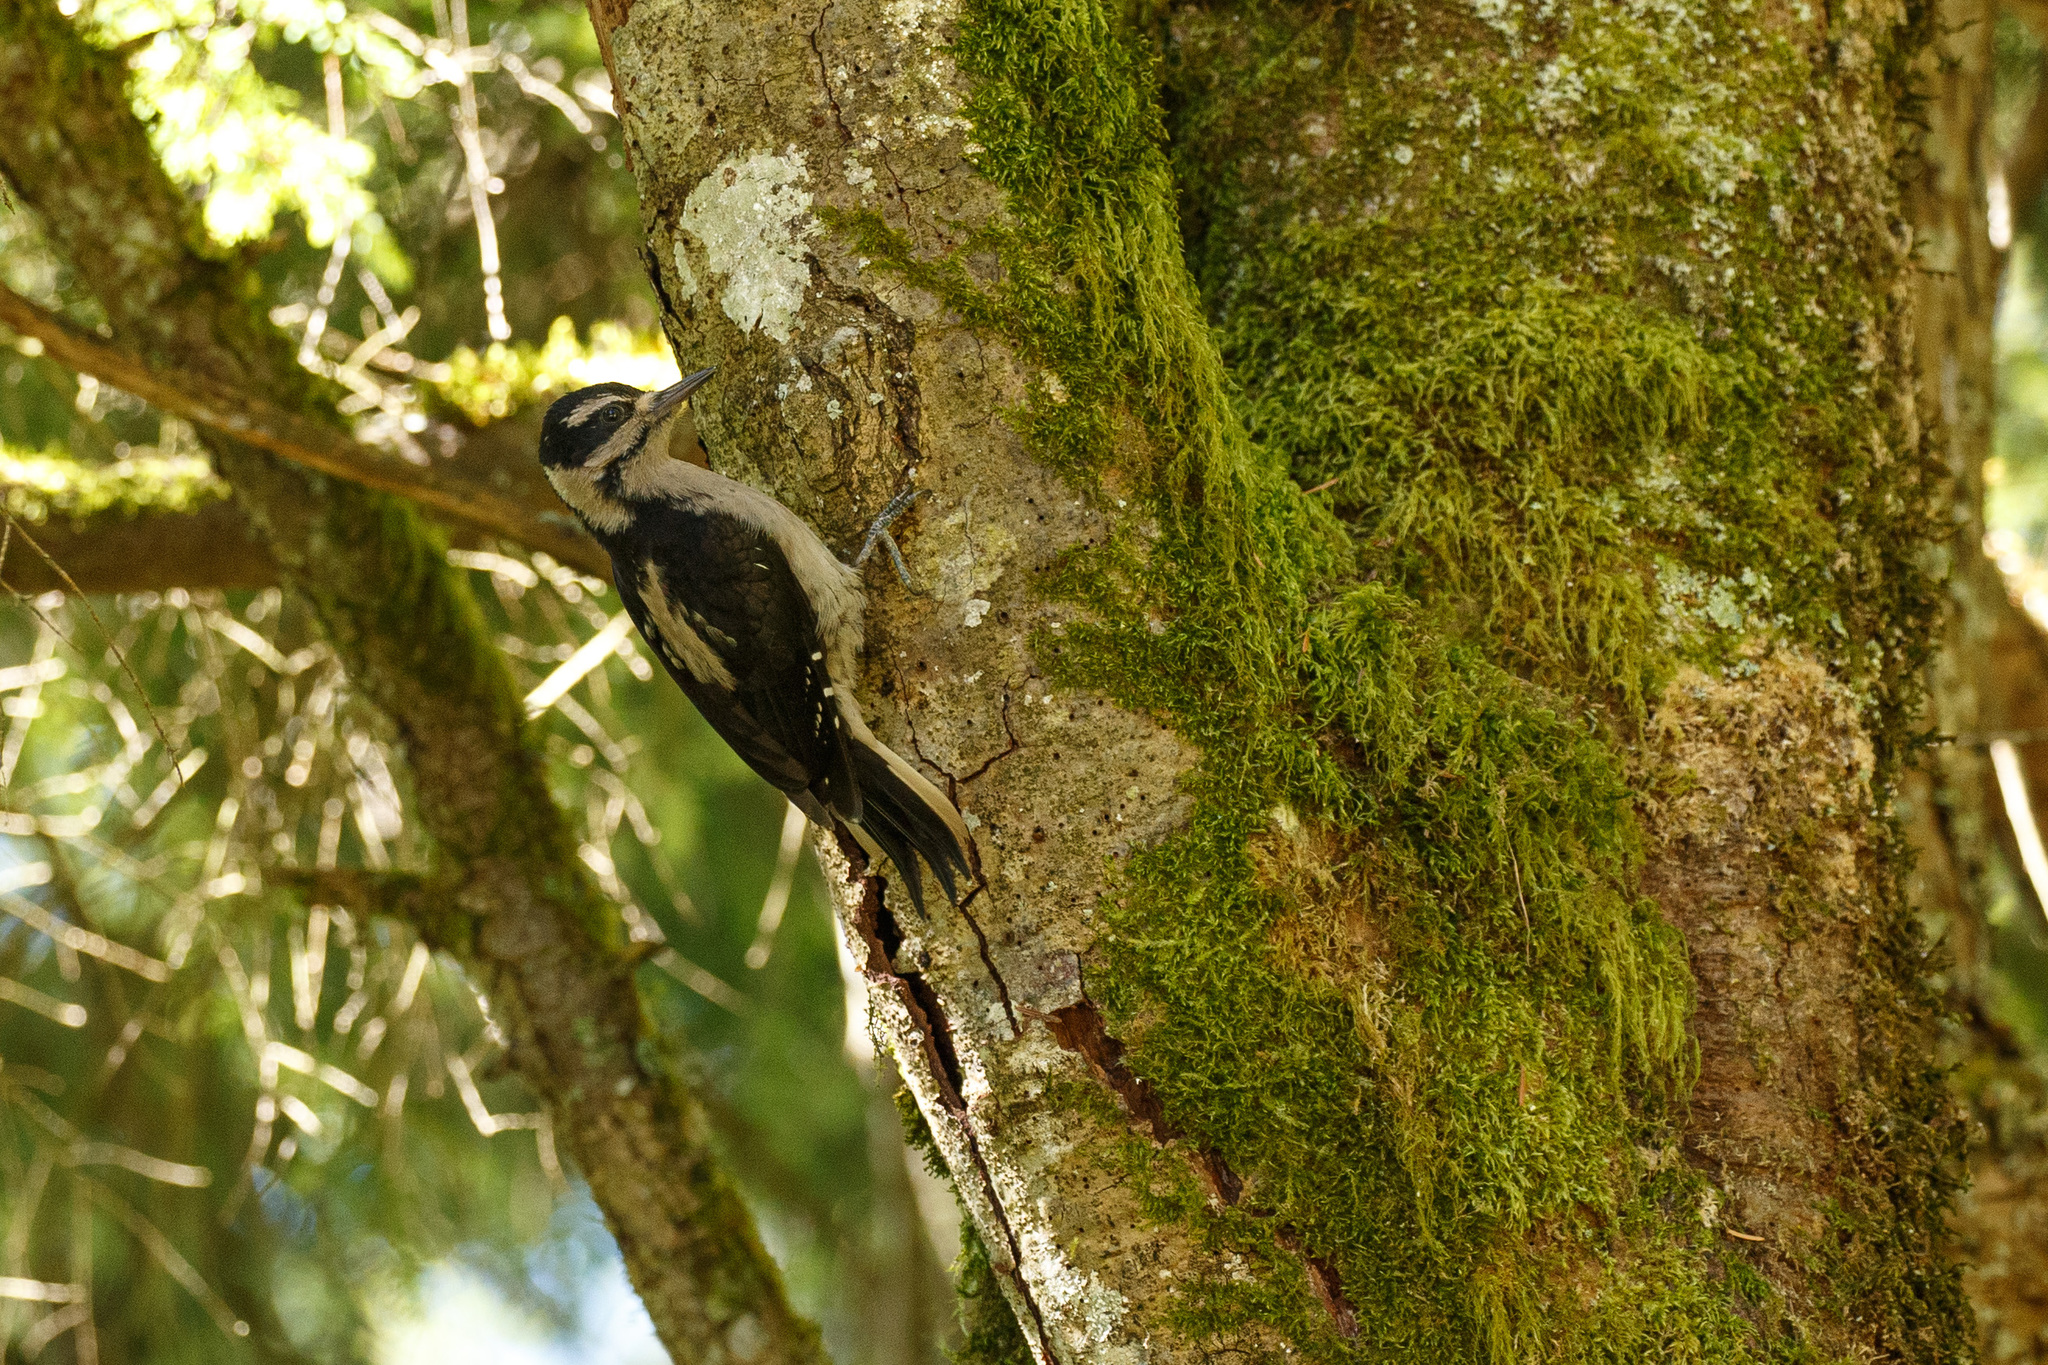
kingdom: Animalia
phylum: Chordata
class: Aves
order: Piciformes
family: Picidae
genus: Leuconotopicus
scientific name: Leuconotopicus villosus
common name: Hairy woodpecker
